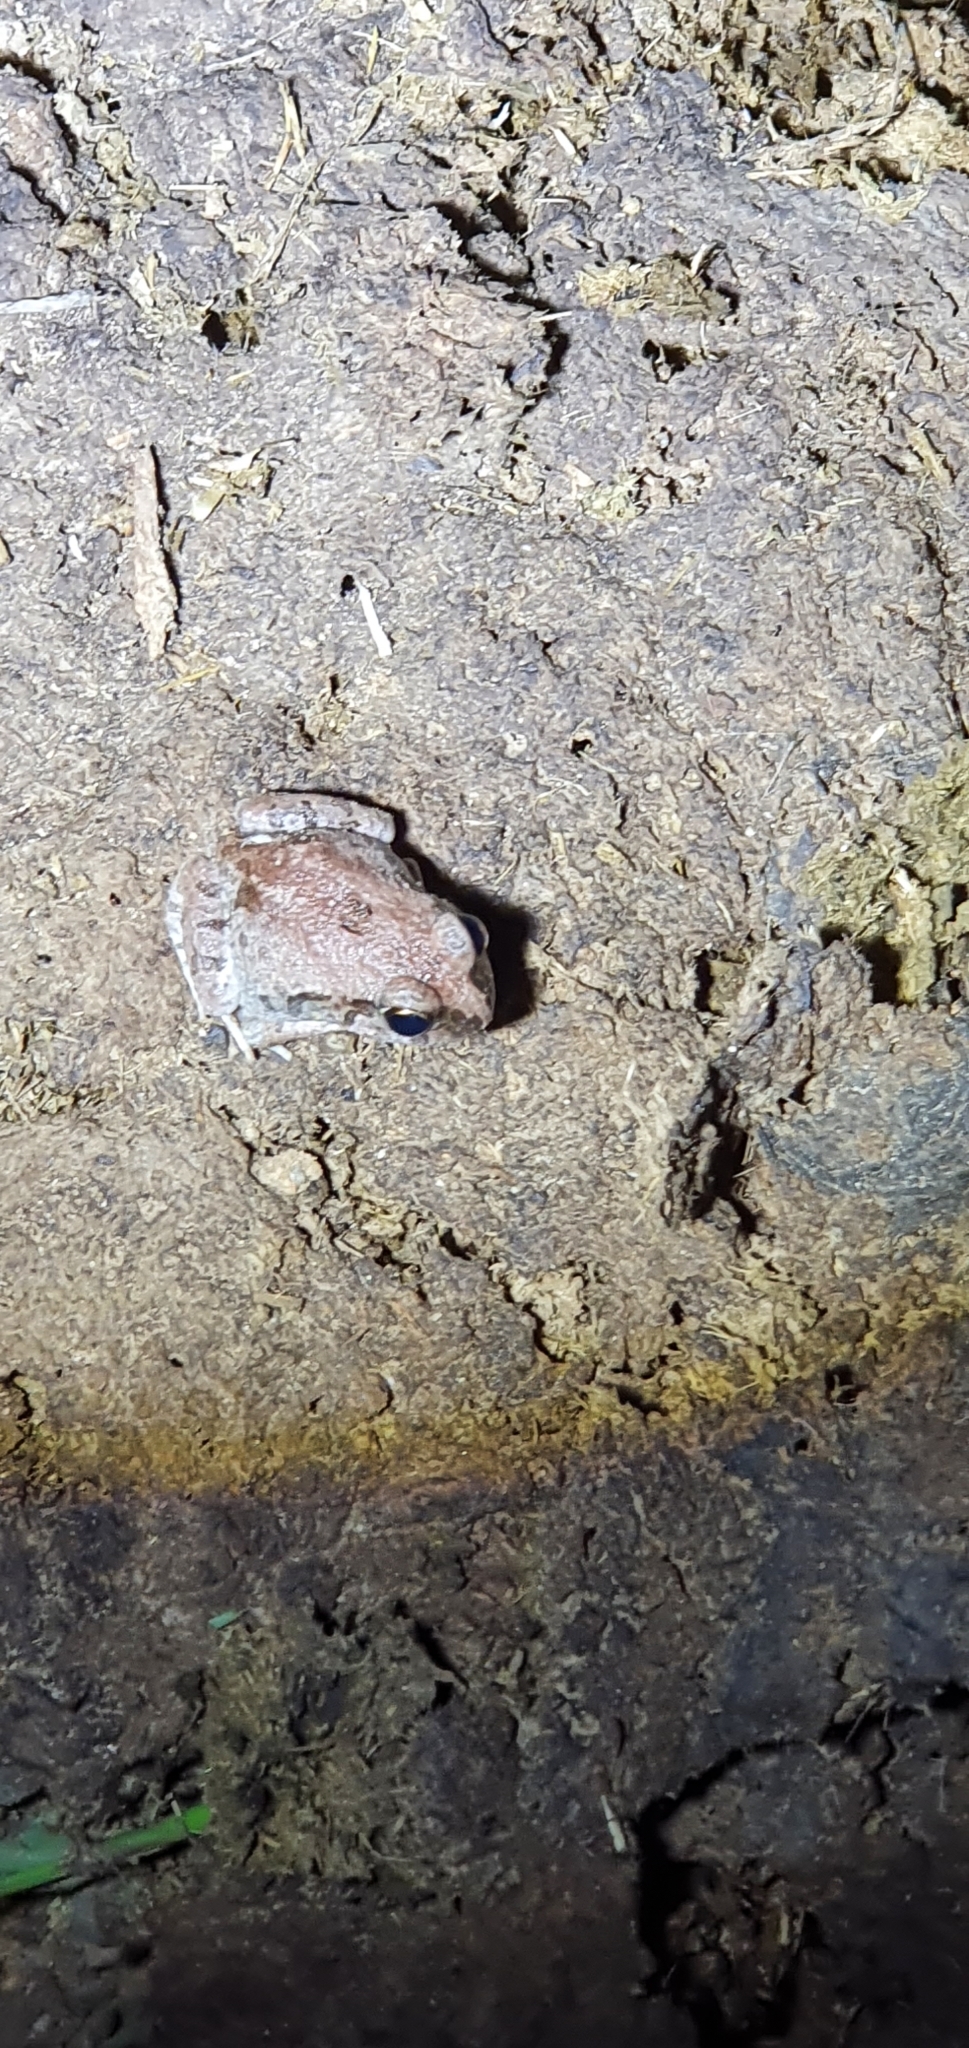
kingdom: Animalia
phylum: Chordata
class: Amphibia
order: Anura
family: Limnodynastidae
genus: Platyplectrum
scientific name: Platyplectrum ornatum
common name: Ornate burrowing frog
